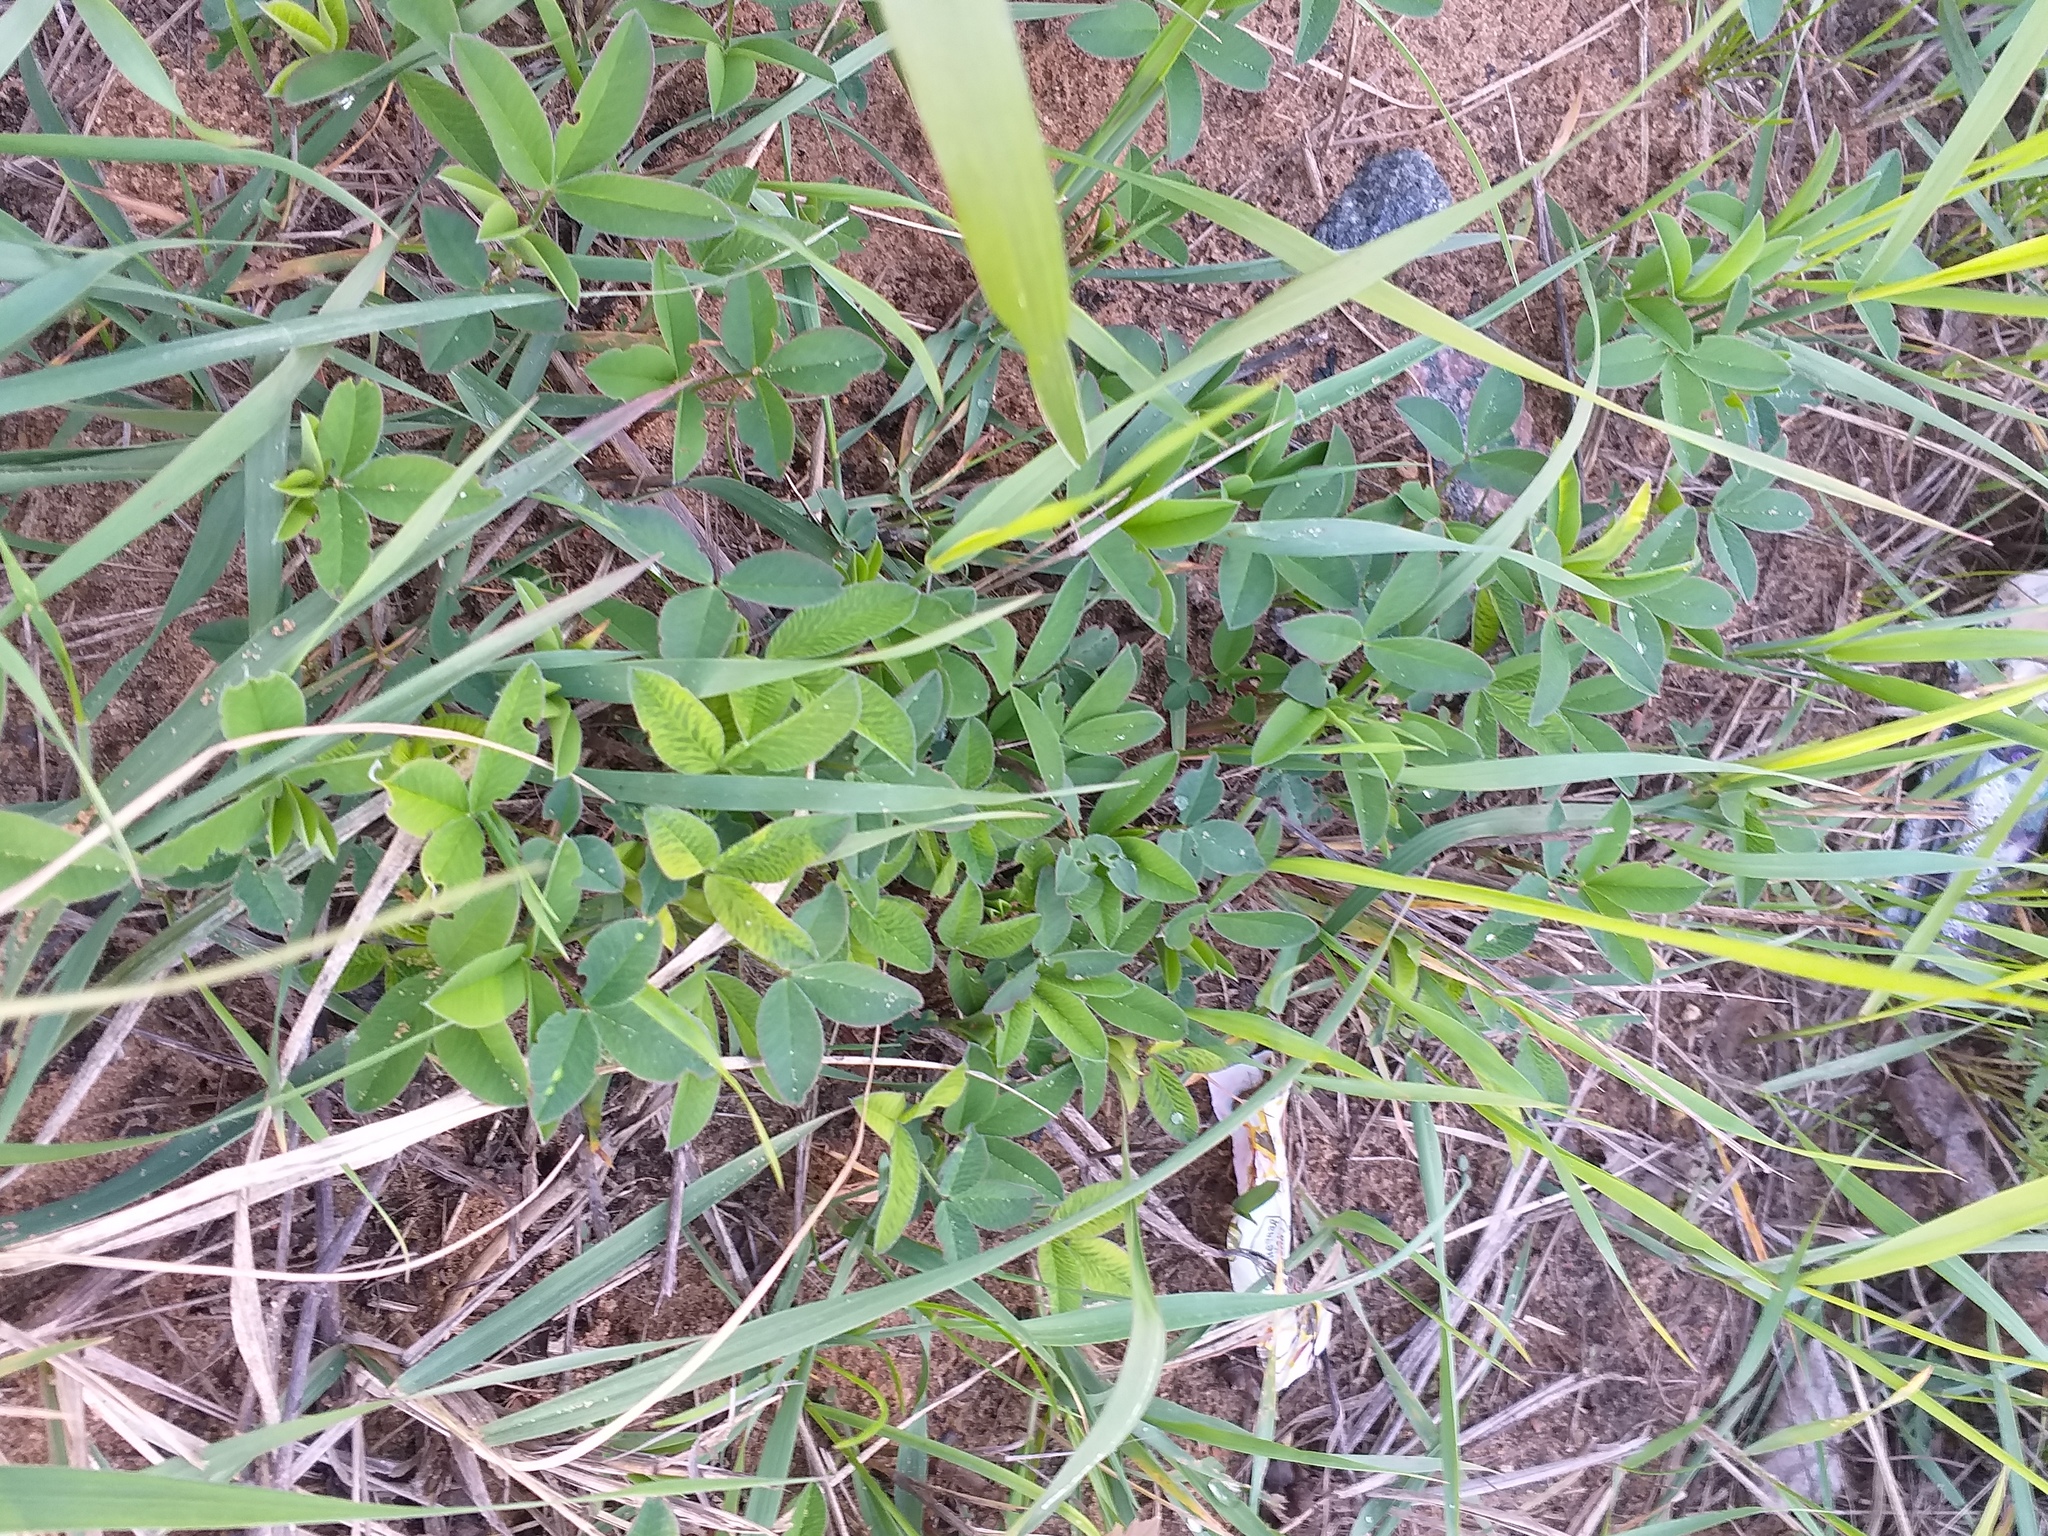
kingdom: Plantae
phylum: Tracheophyta
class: Magnoliopsida
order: Fabales
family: Fabaceae
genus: Trifolium
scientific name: Trifolium medium
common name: Zigzag clover
